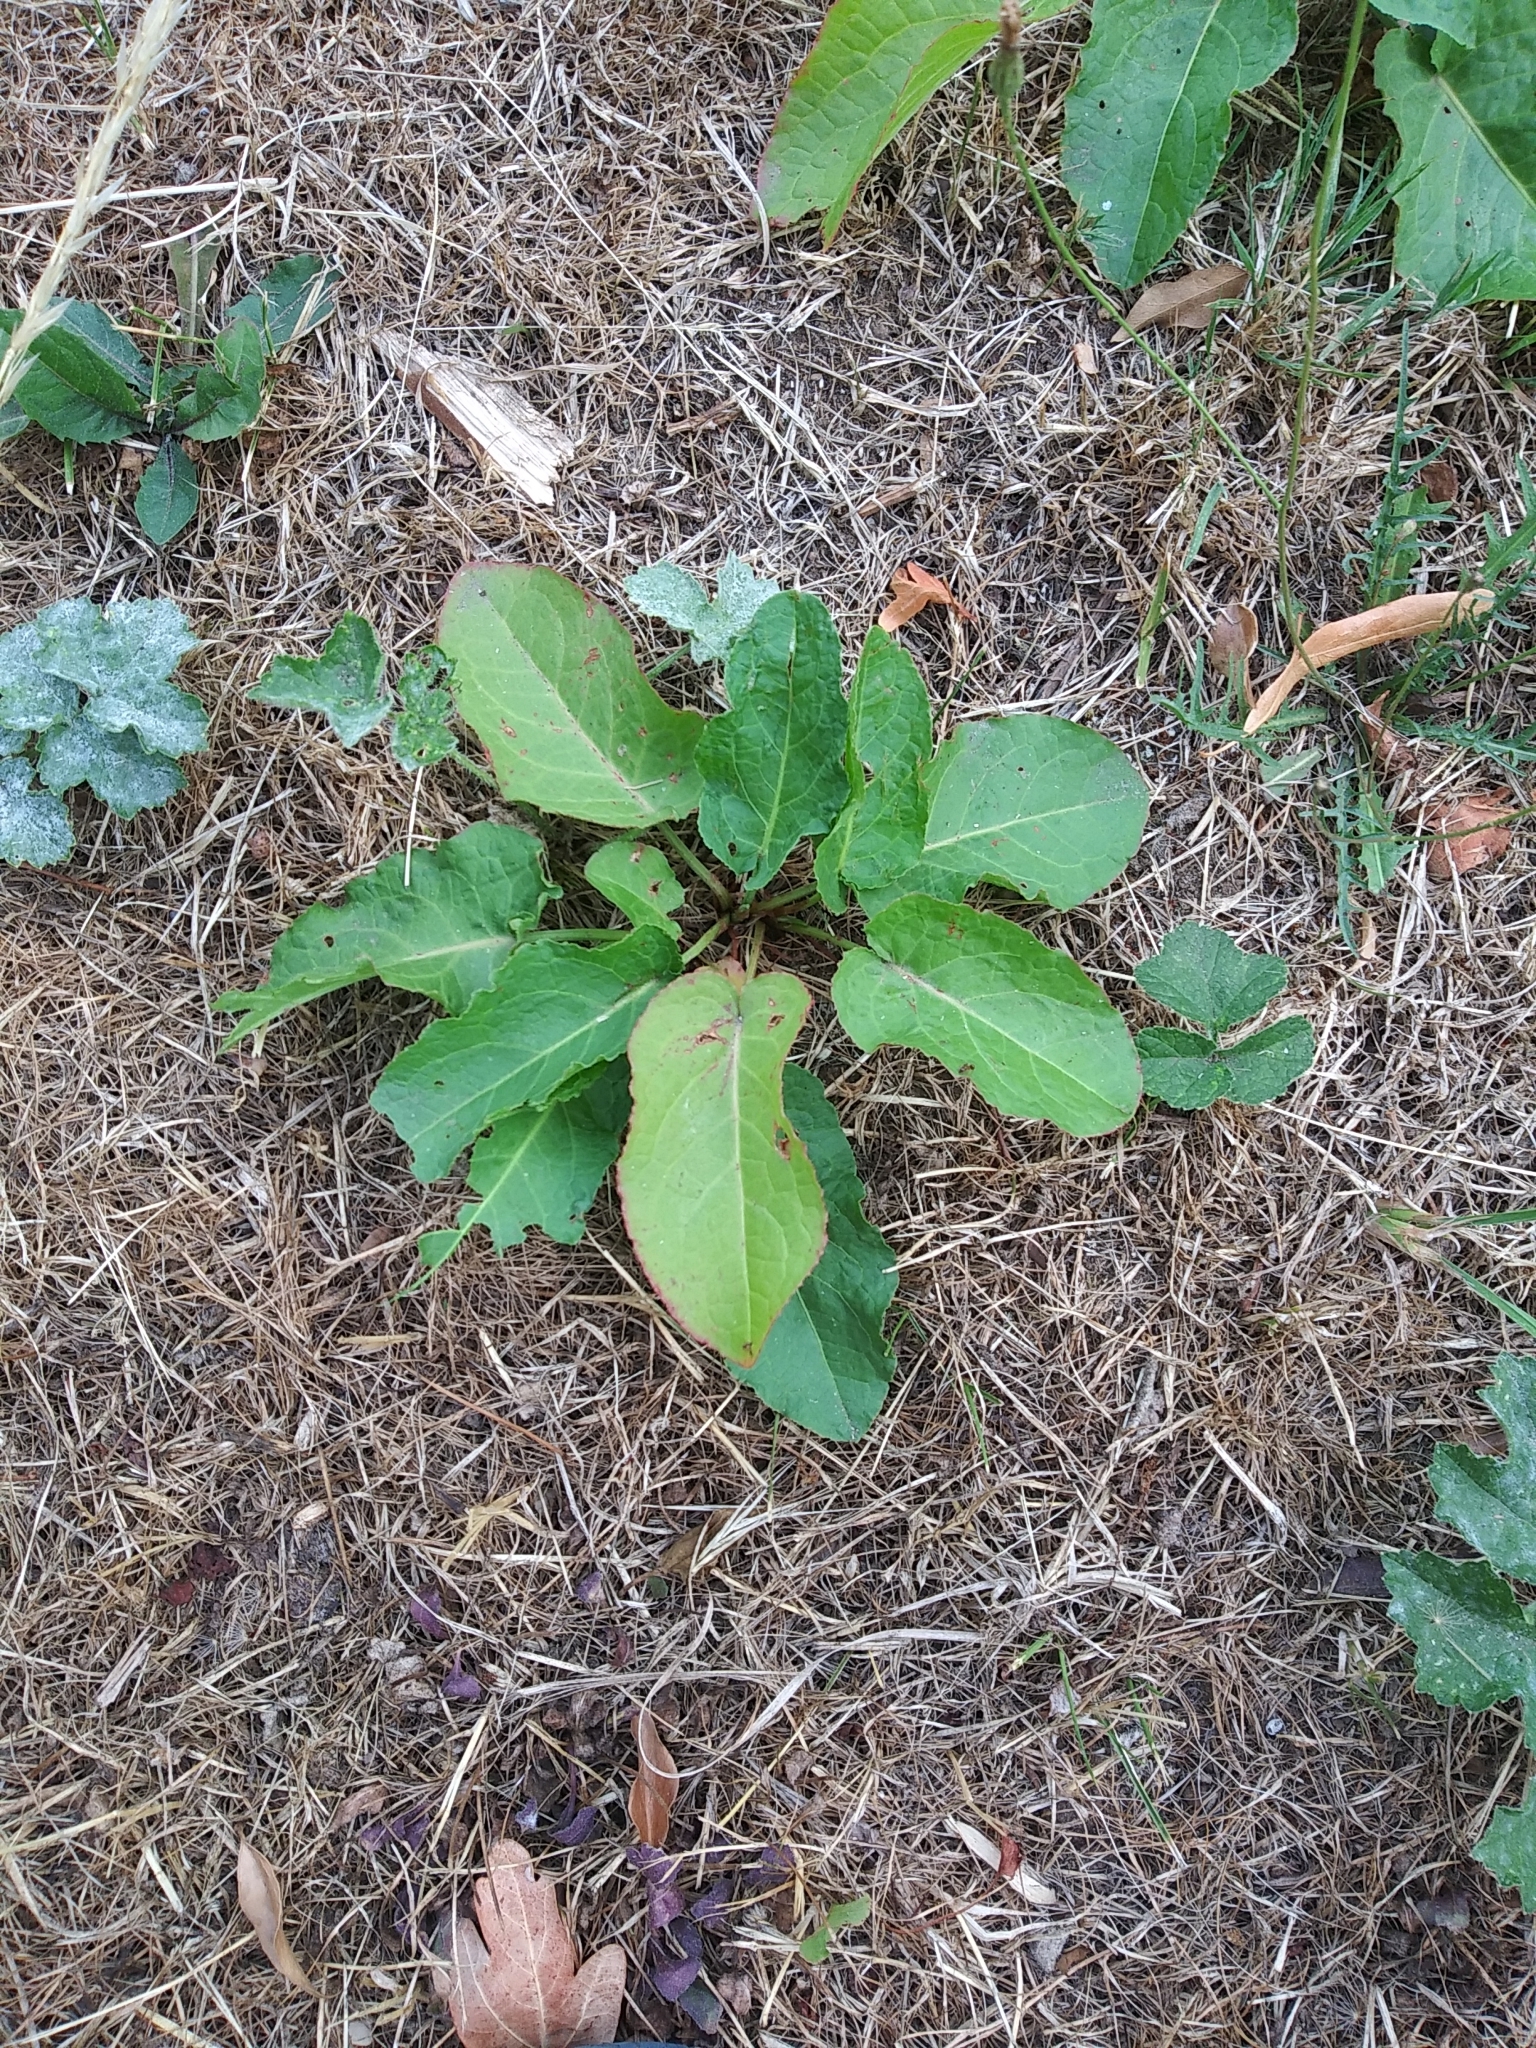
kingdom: Plantae
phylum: Tracheophyta
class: Magnoliopsida
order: Caryophyllales
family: Polygonaceae
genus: Rumex
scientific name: Rumex obtusifolius
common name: Bitter dock
